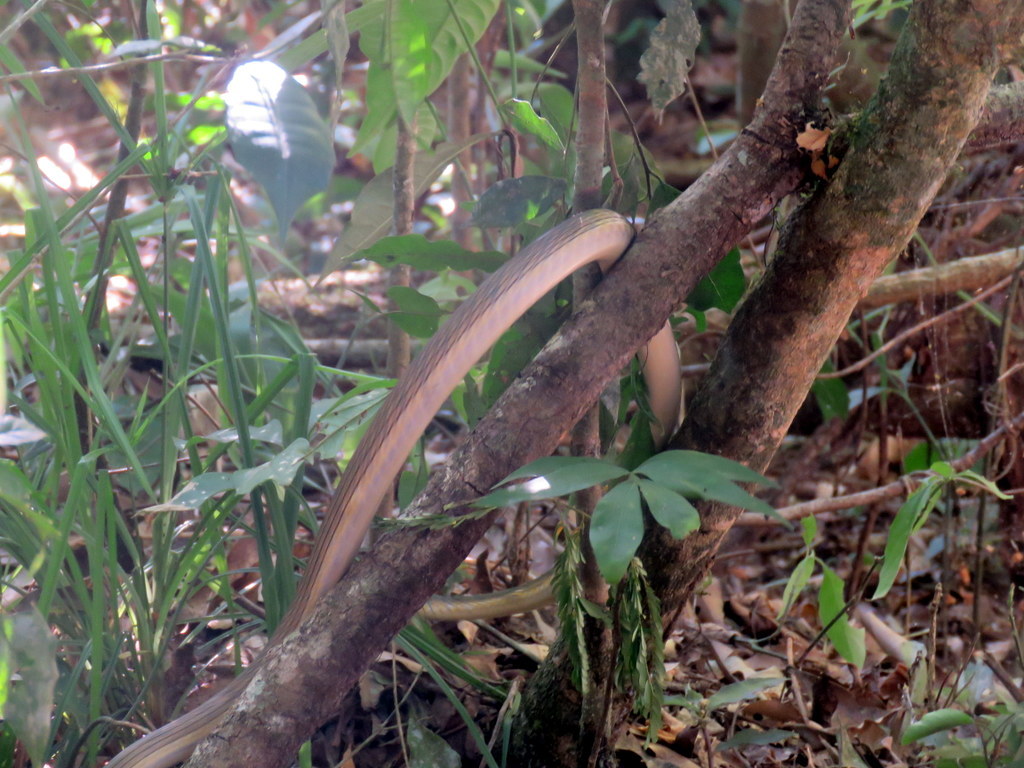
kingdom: Animalia
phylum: Chordata
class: Squamata
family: Colubridae
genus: Leptophis
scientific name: Leptophis ahaetulla
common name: Parrot snake
